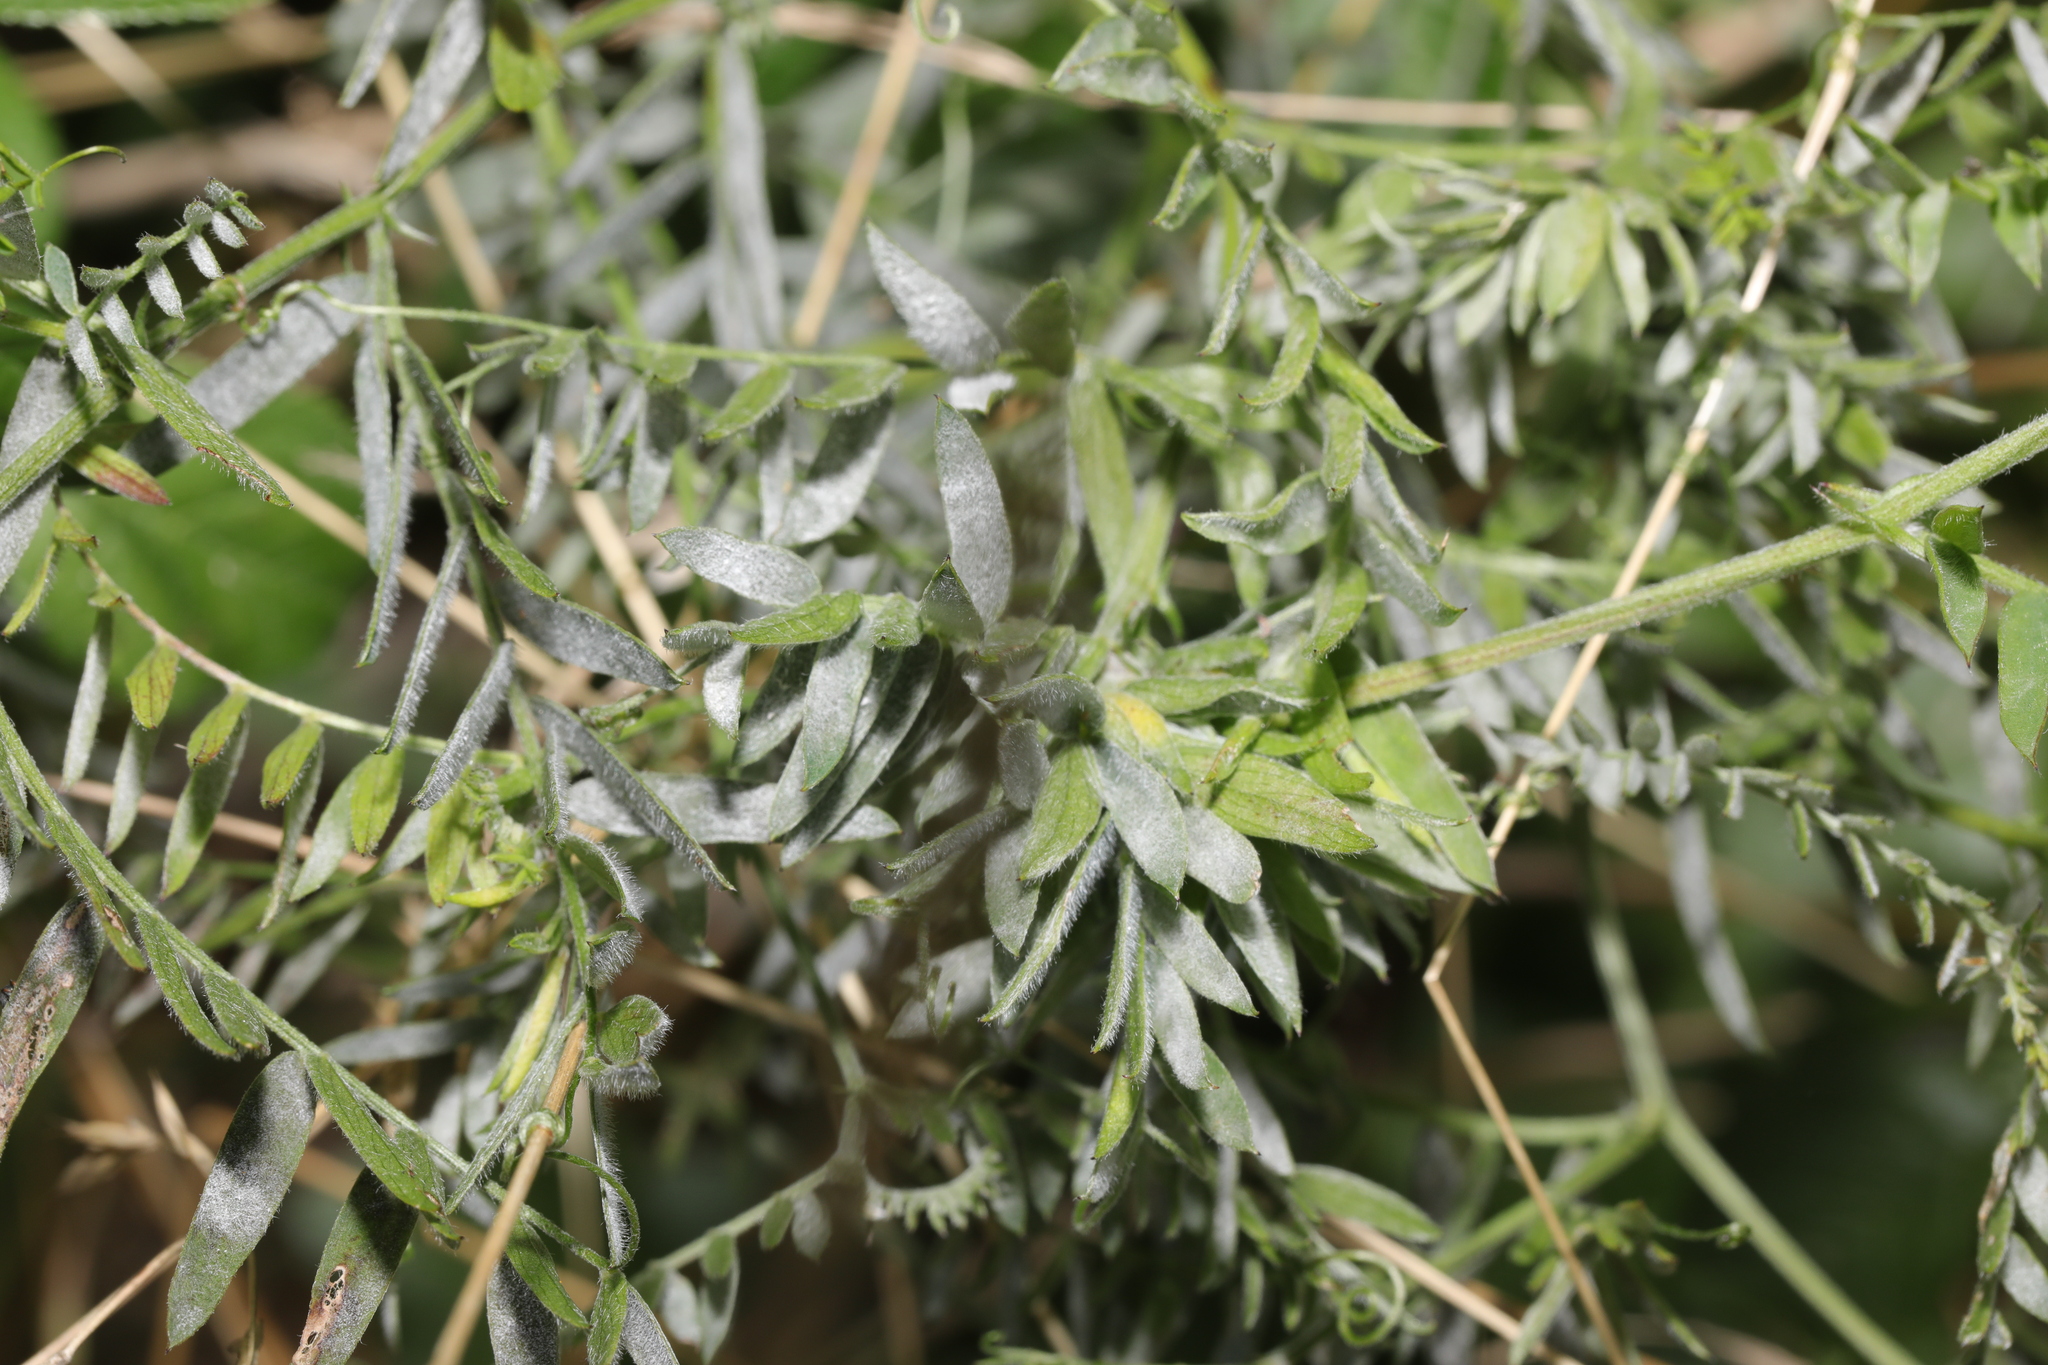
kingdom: Plantae
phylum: Tracheophyta
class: Magnoliopsida
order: Fabales
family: Fabaceae
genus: Vicia
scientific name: Vicia cracca
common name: Bird vetch
